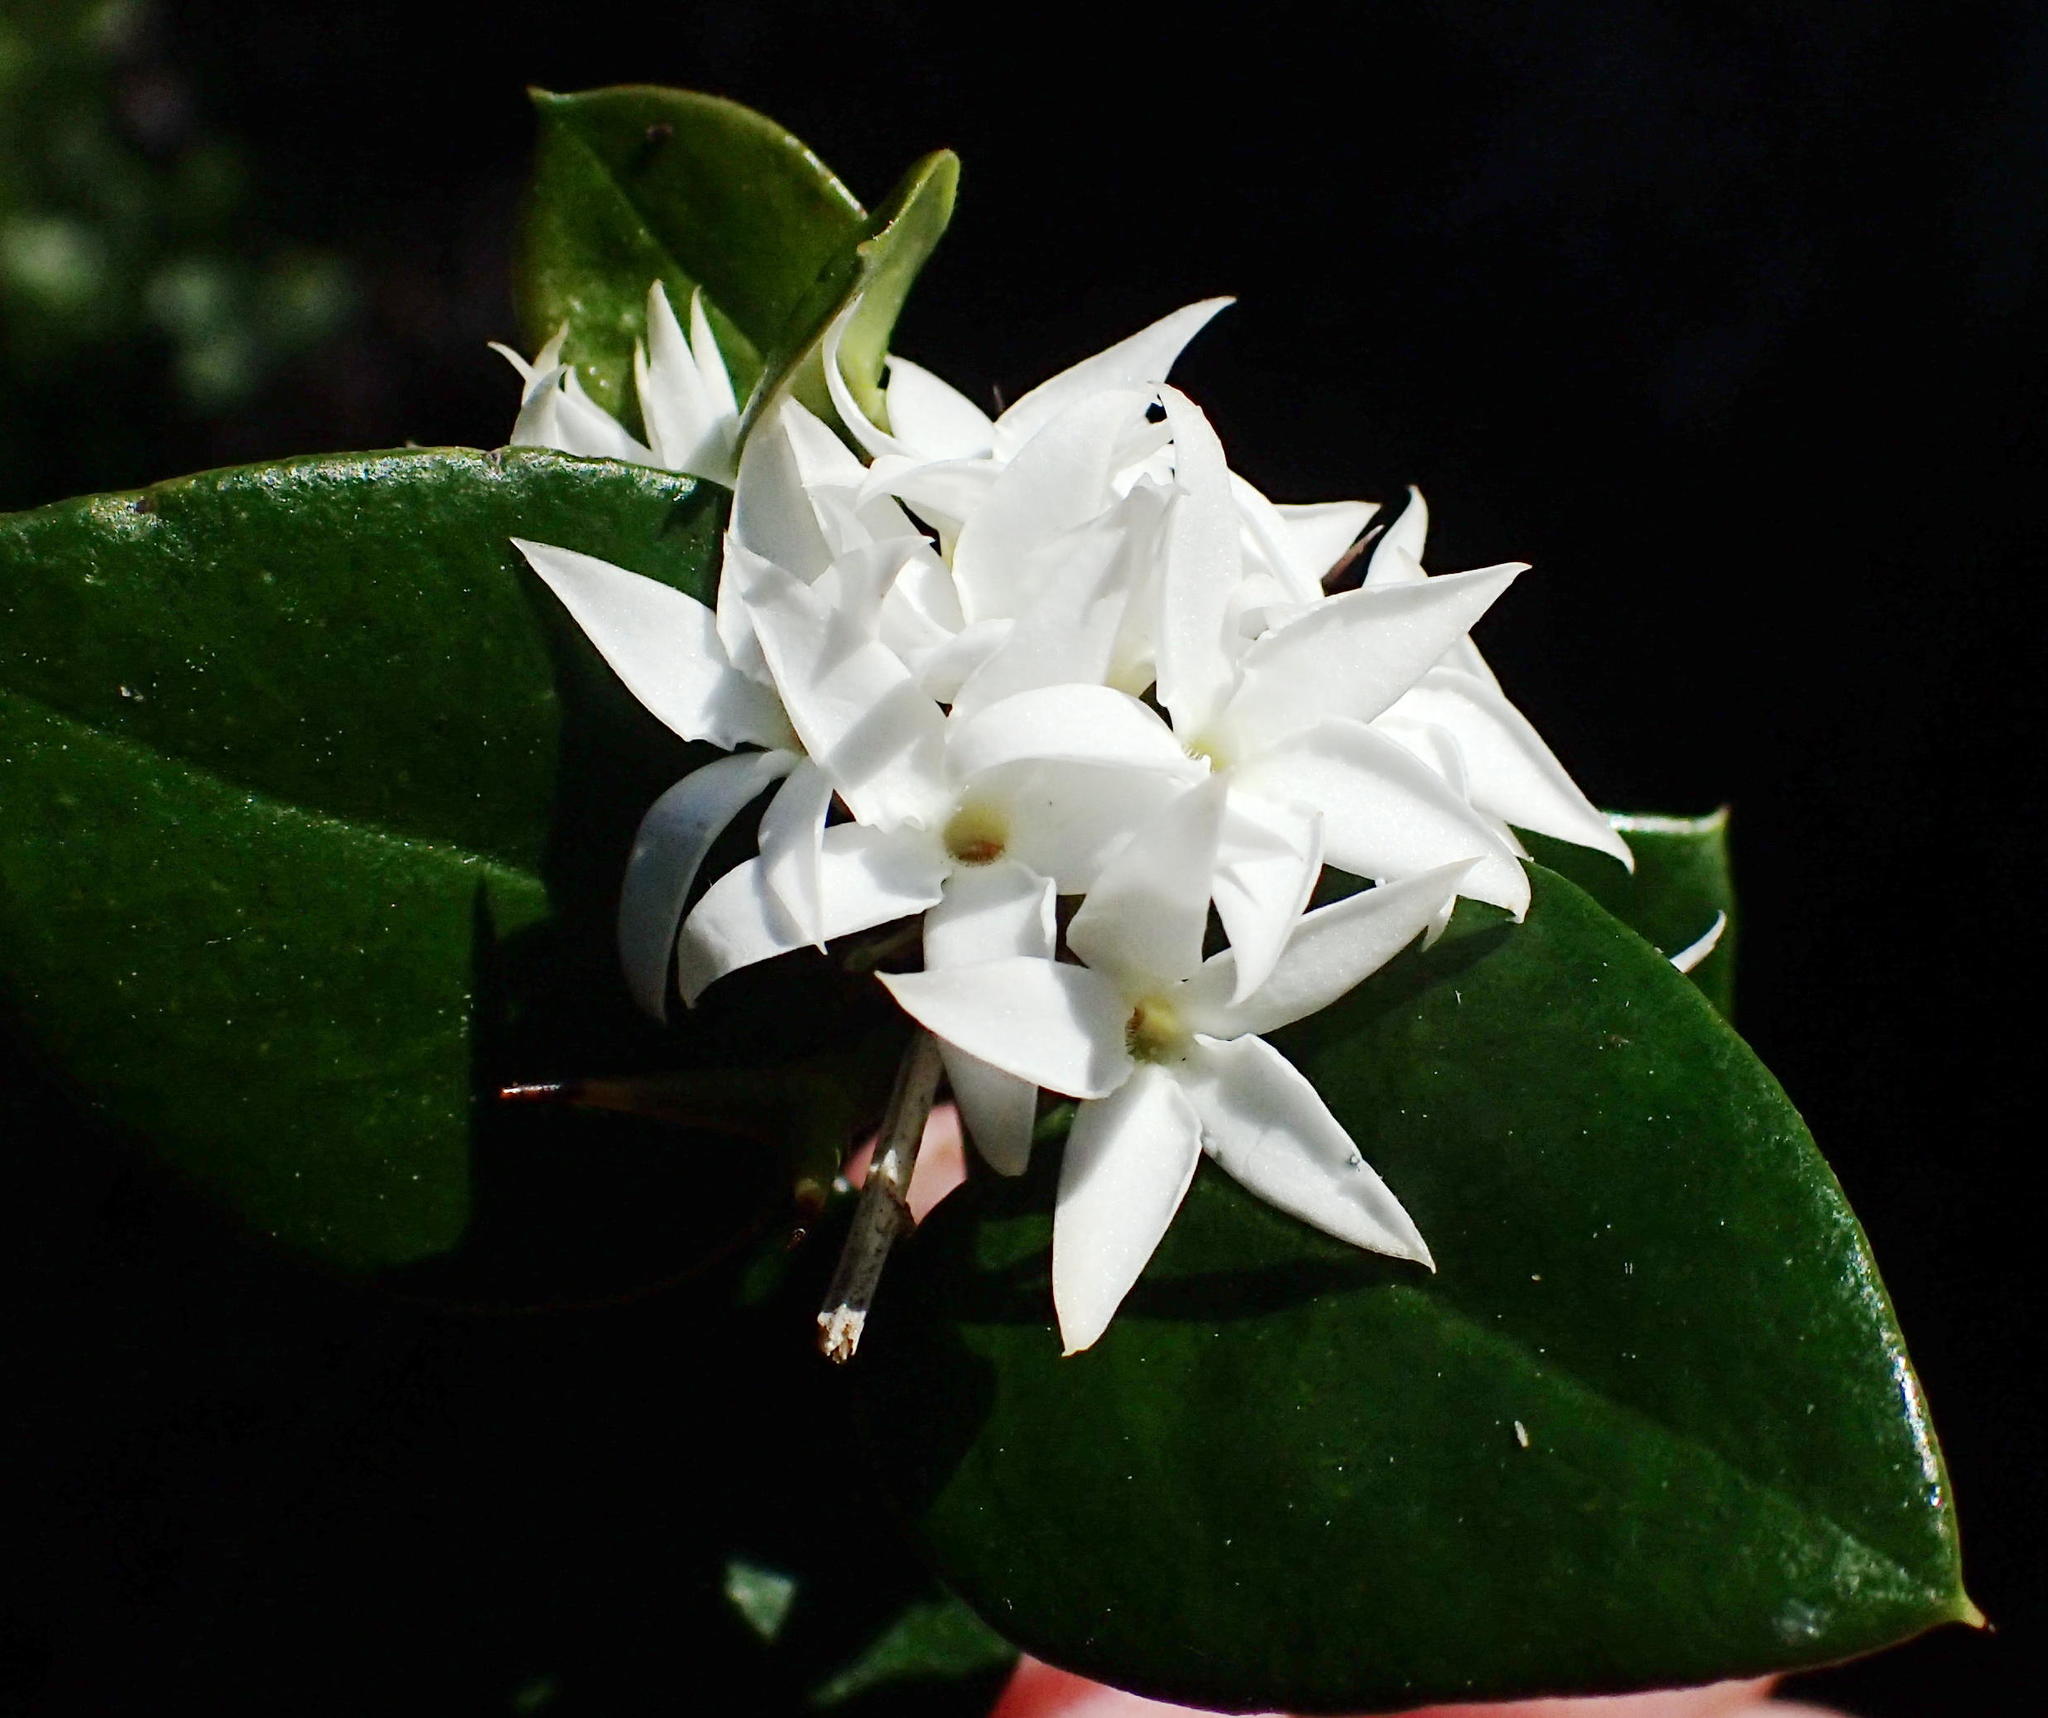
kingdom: Plantae
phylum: Tracheophyta
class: Magnoliopsida
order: Gentianales
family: Apocynaceae
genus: Carissa
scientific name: Carissa bispinosa
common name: Forest num-num
